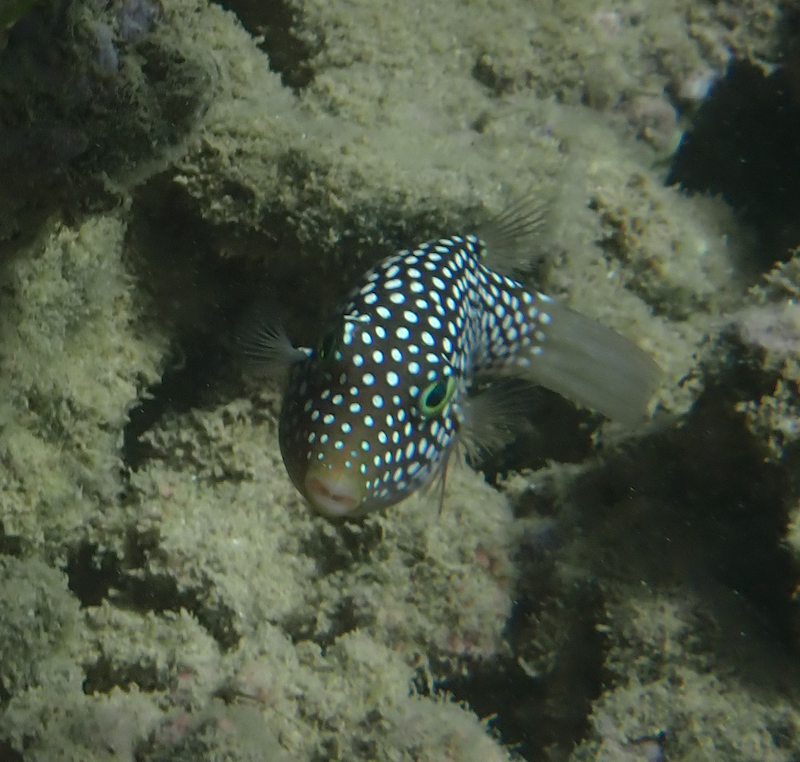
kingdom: Animalia
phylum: Chordata
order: Tetraodontiformes
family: Tetraodontidae
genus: Canthigaster
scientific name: Canthigaster jactator
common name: Hawaiian whitespotted toby
